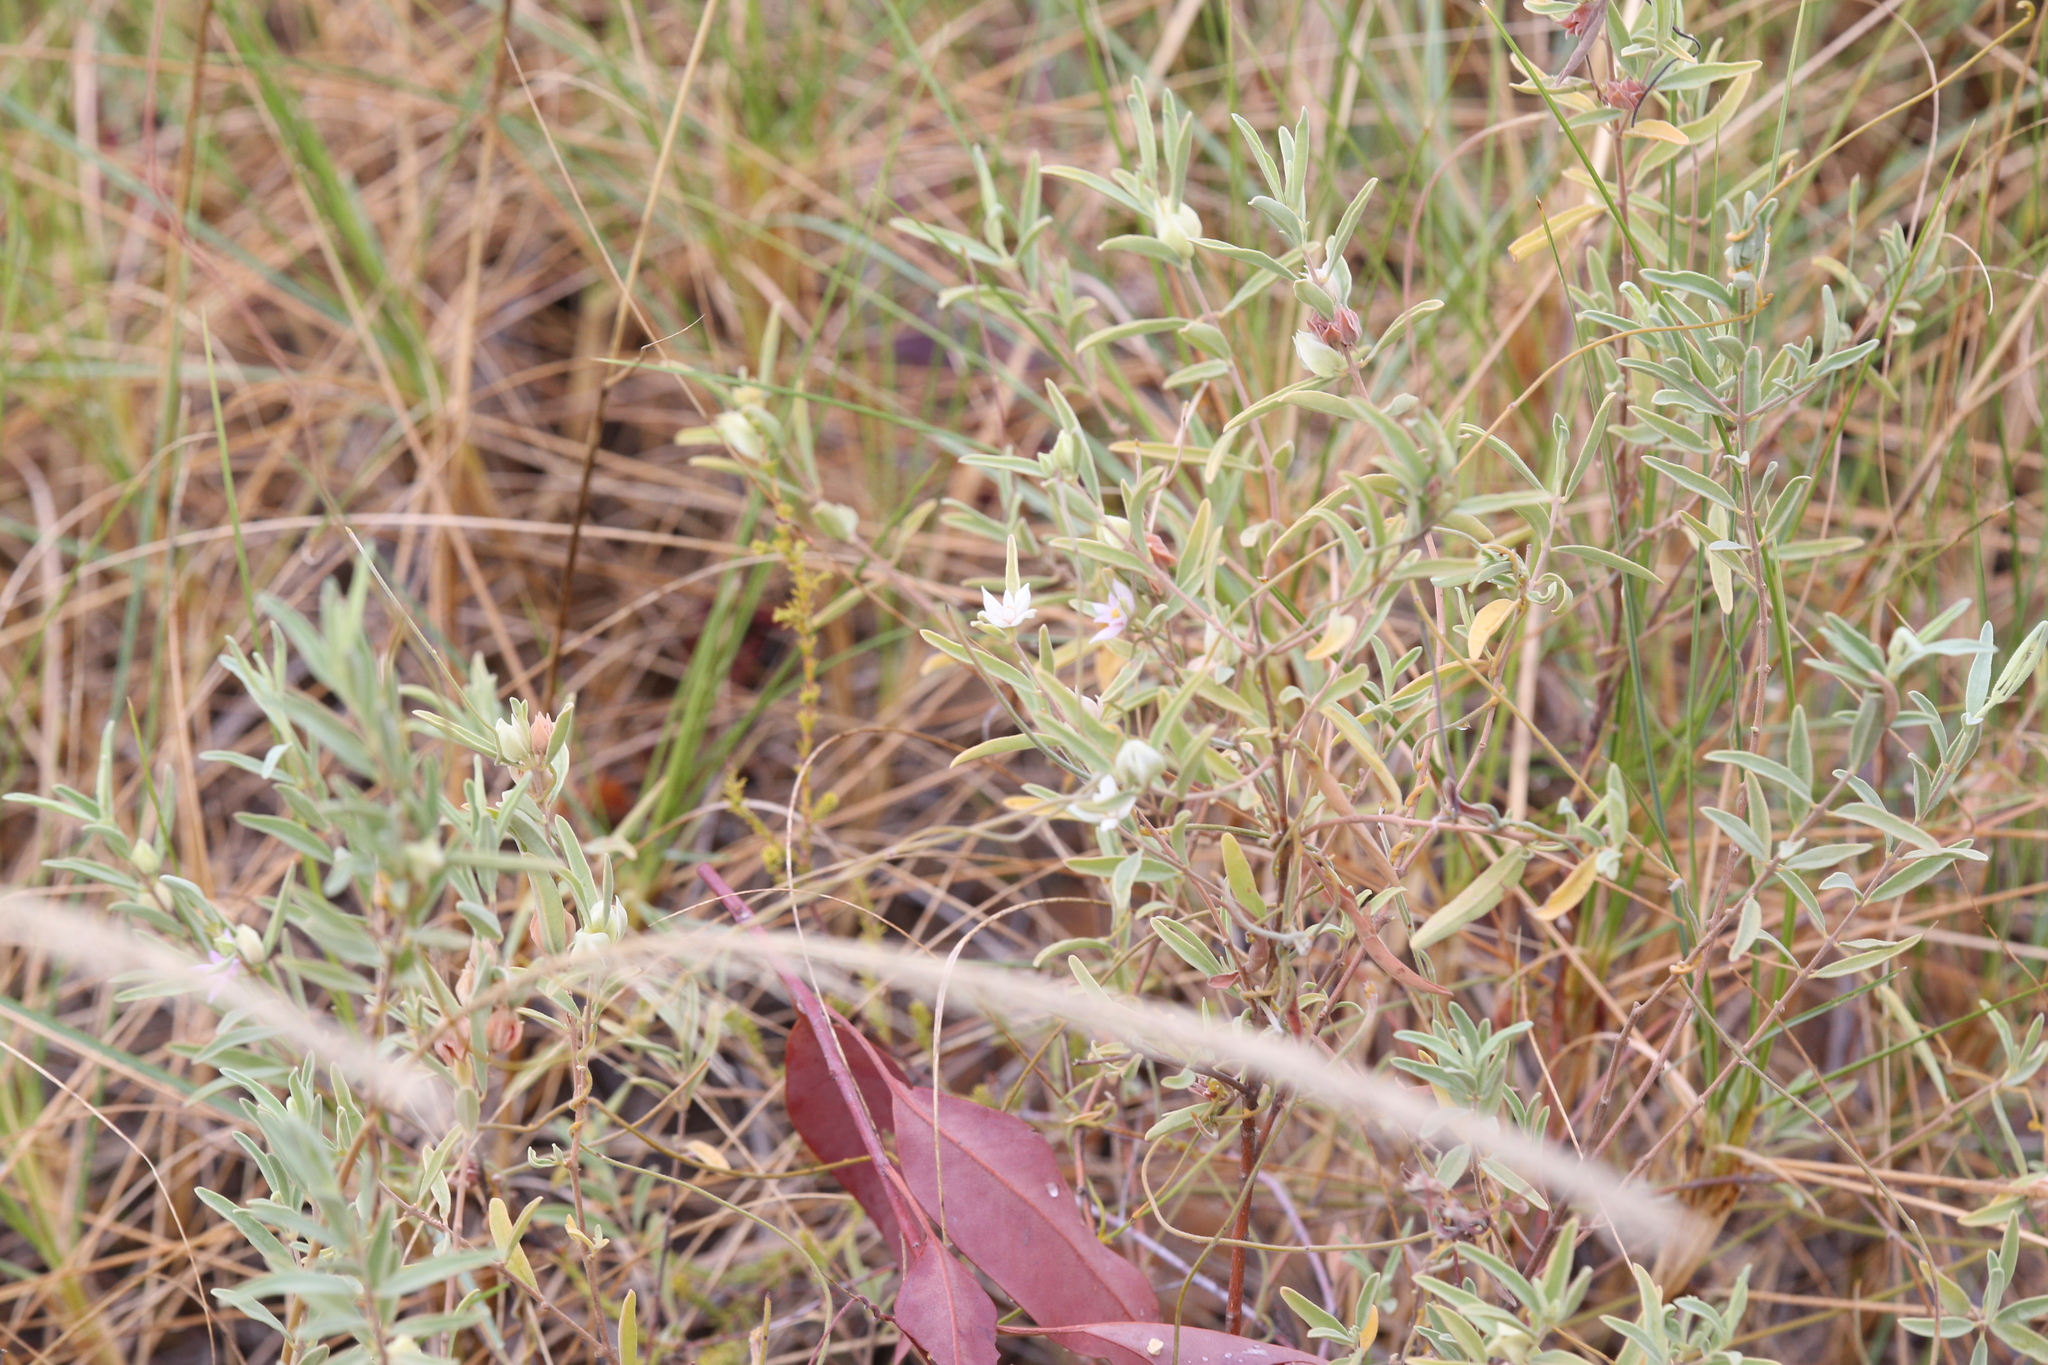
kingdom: Plantae
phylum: Tracheophyta
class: Magnoliopsida
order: Sapindales
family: Rutaceae
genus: Boronia
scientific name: Boronia grandisepala
